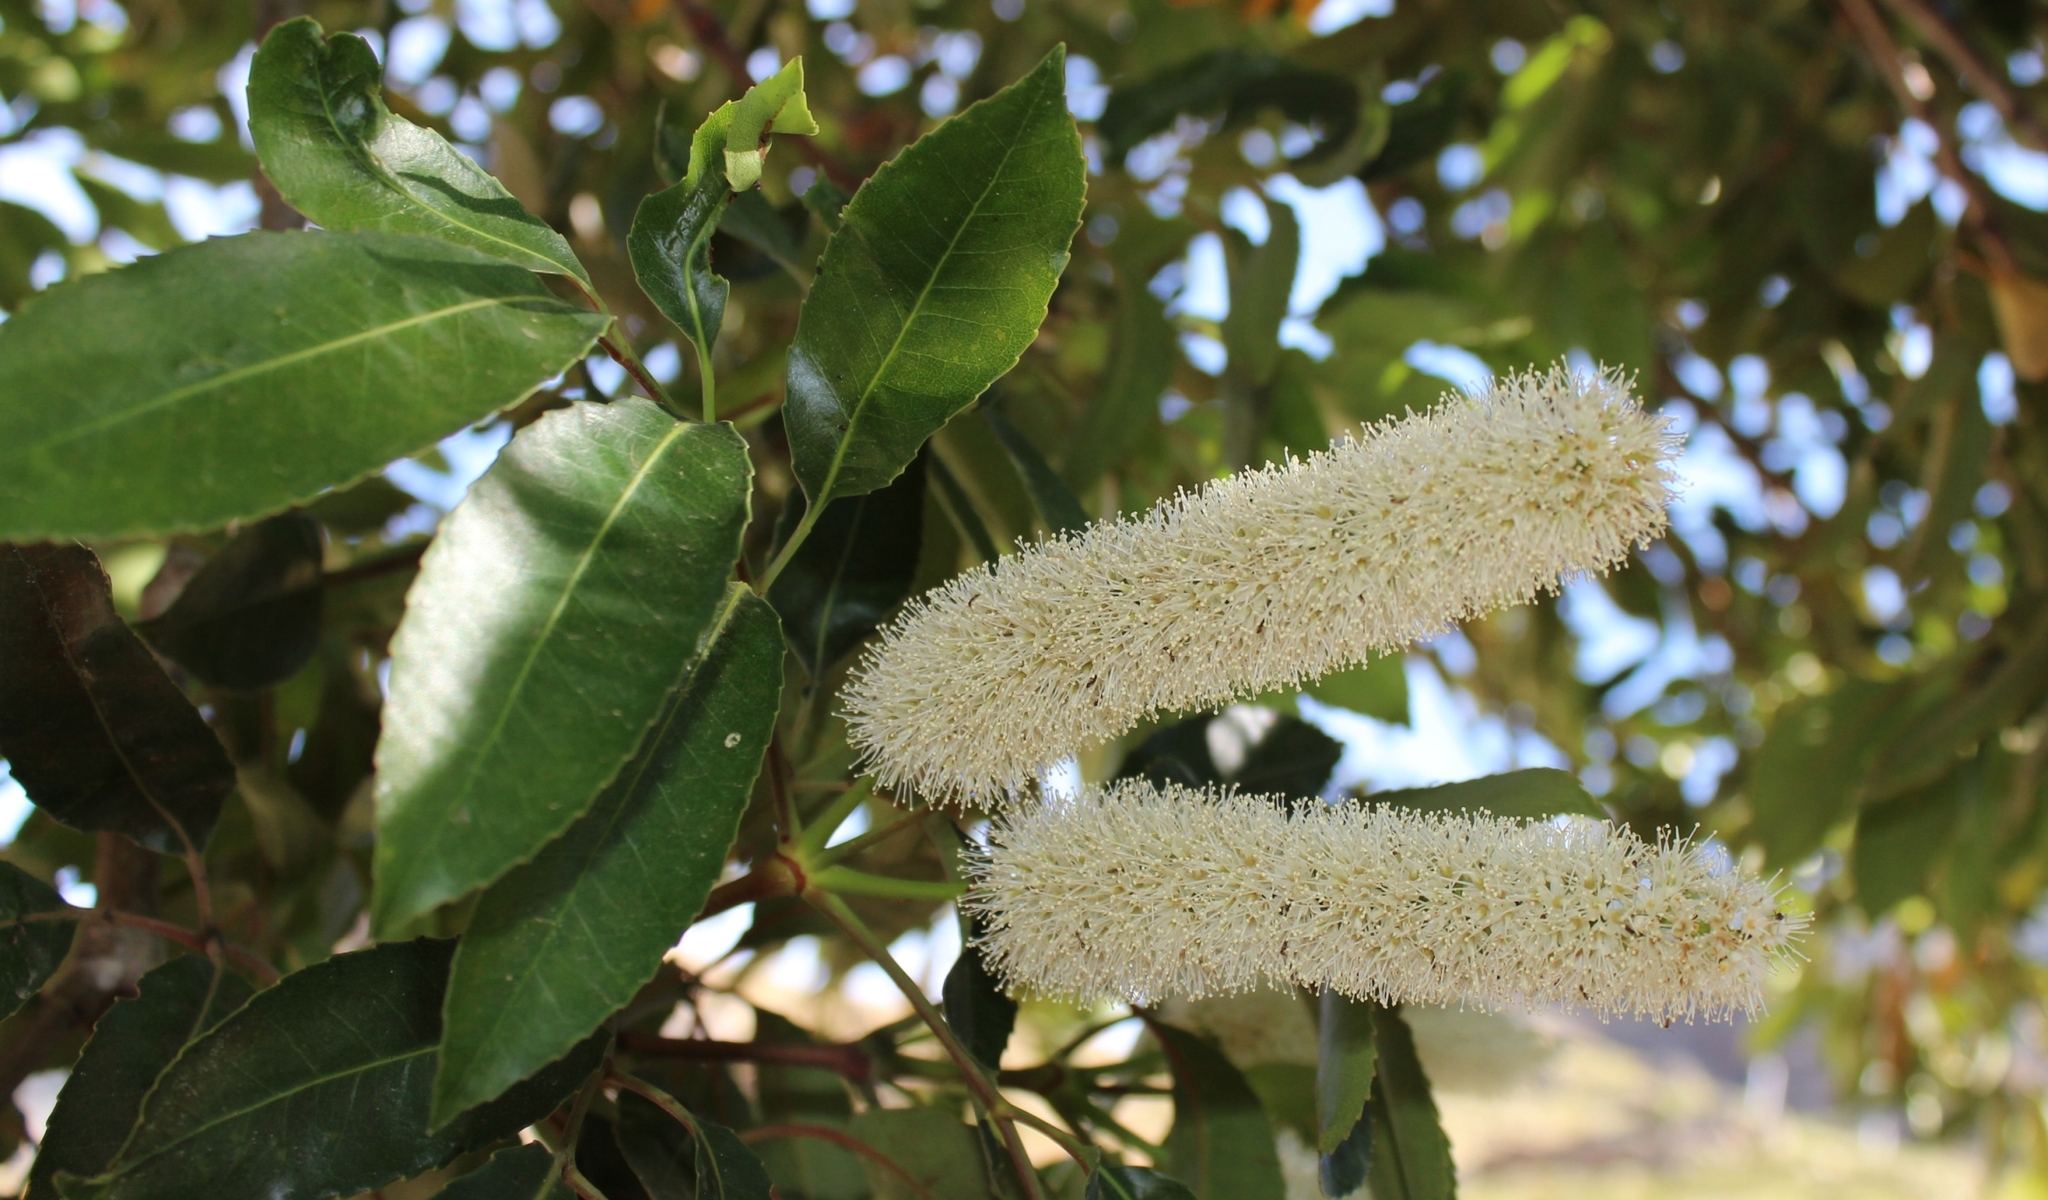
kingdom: Plantae
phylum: Tracheophyta
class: Magnoliopsida
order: Oxalidales
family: Cunoniaceae
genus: Cunonia
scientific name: Cunonia capensis
